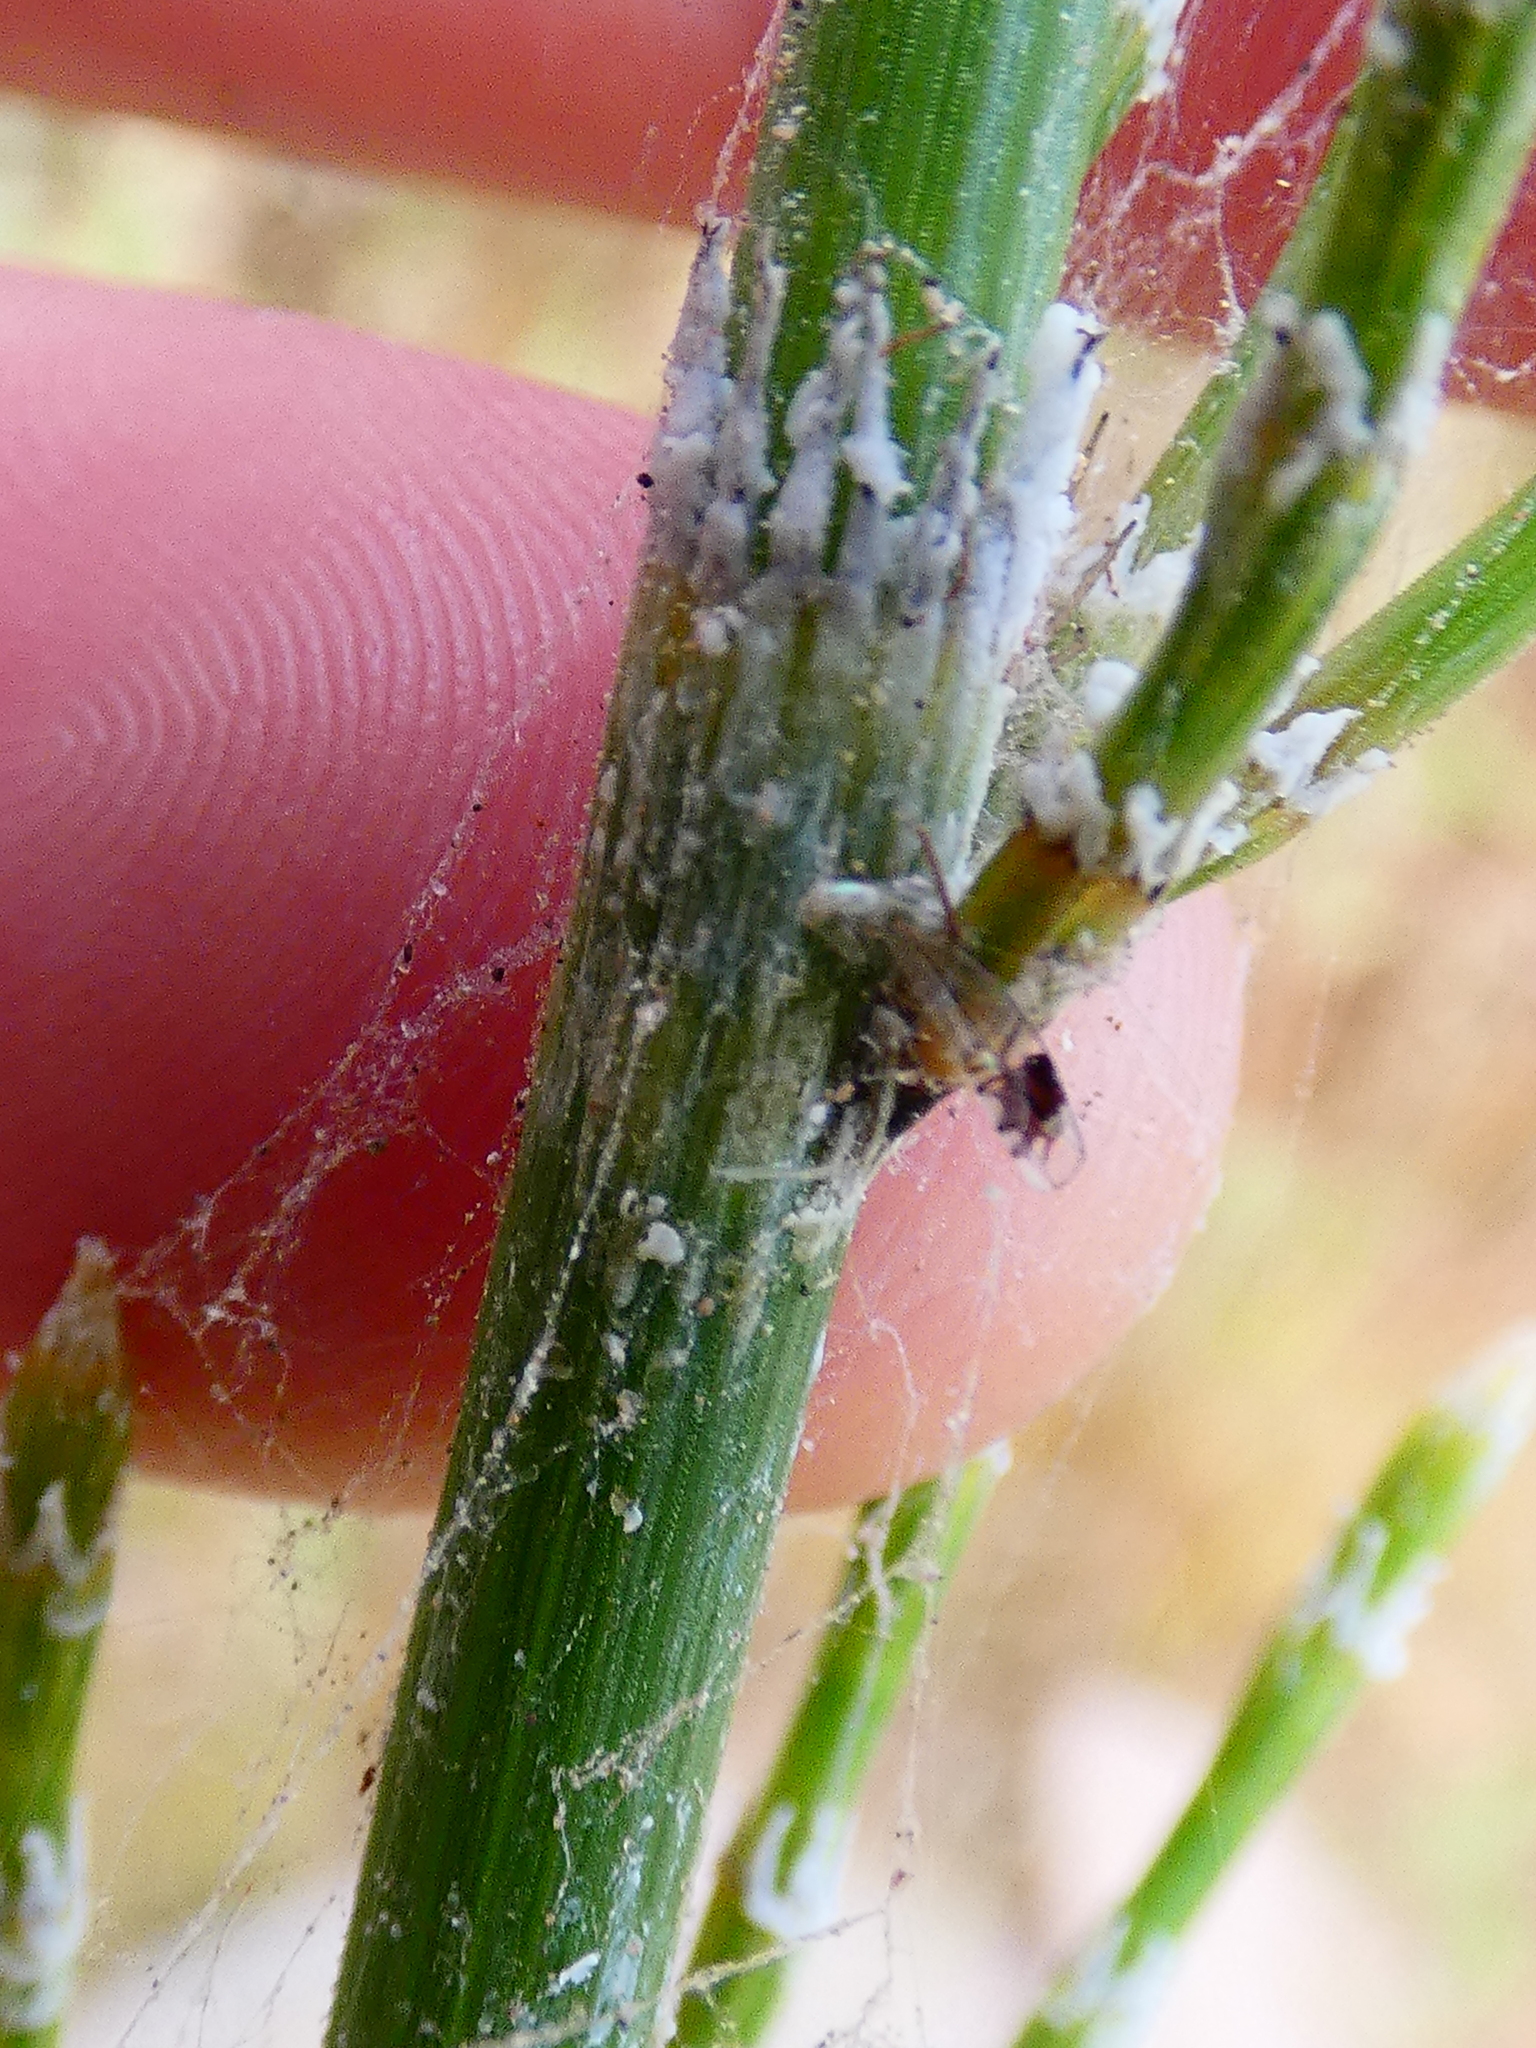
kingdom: Plantae
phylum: Tracheophyta
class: Polypodiopsida
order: Equisetales
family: Equisetaceae
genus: Equisetum
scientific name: Equisetum giganteum
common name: Giant horsetail
